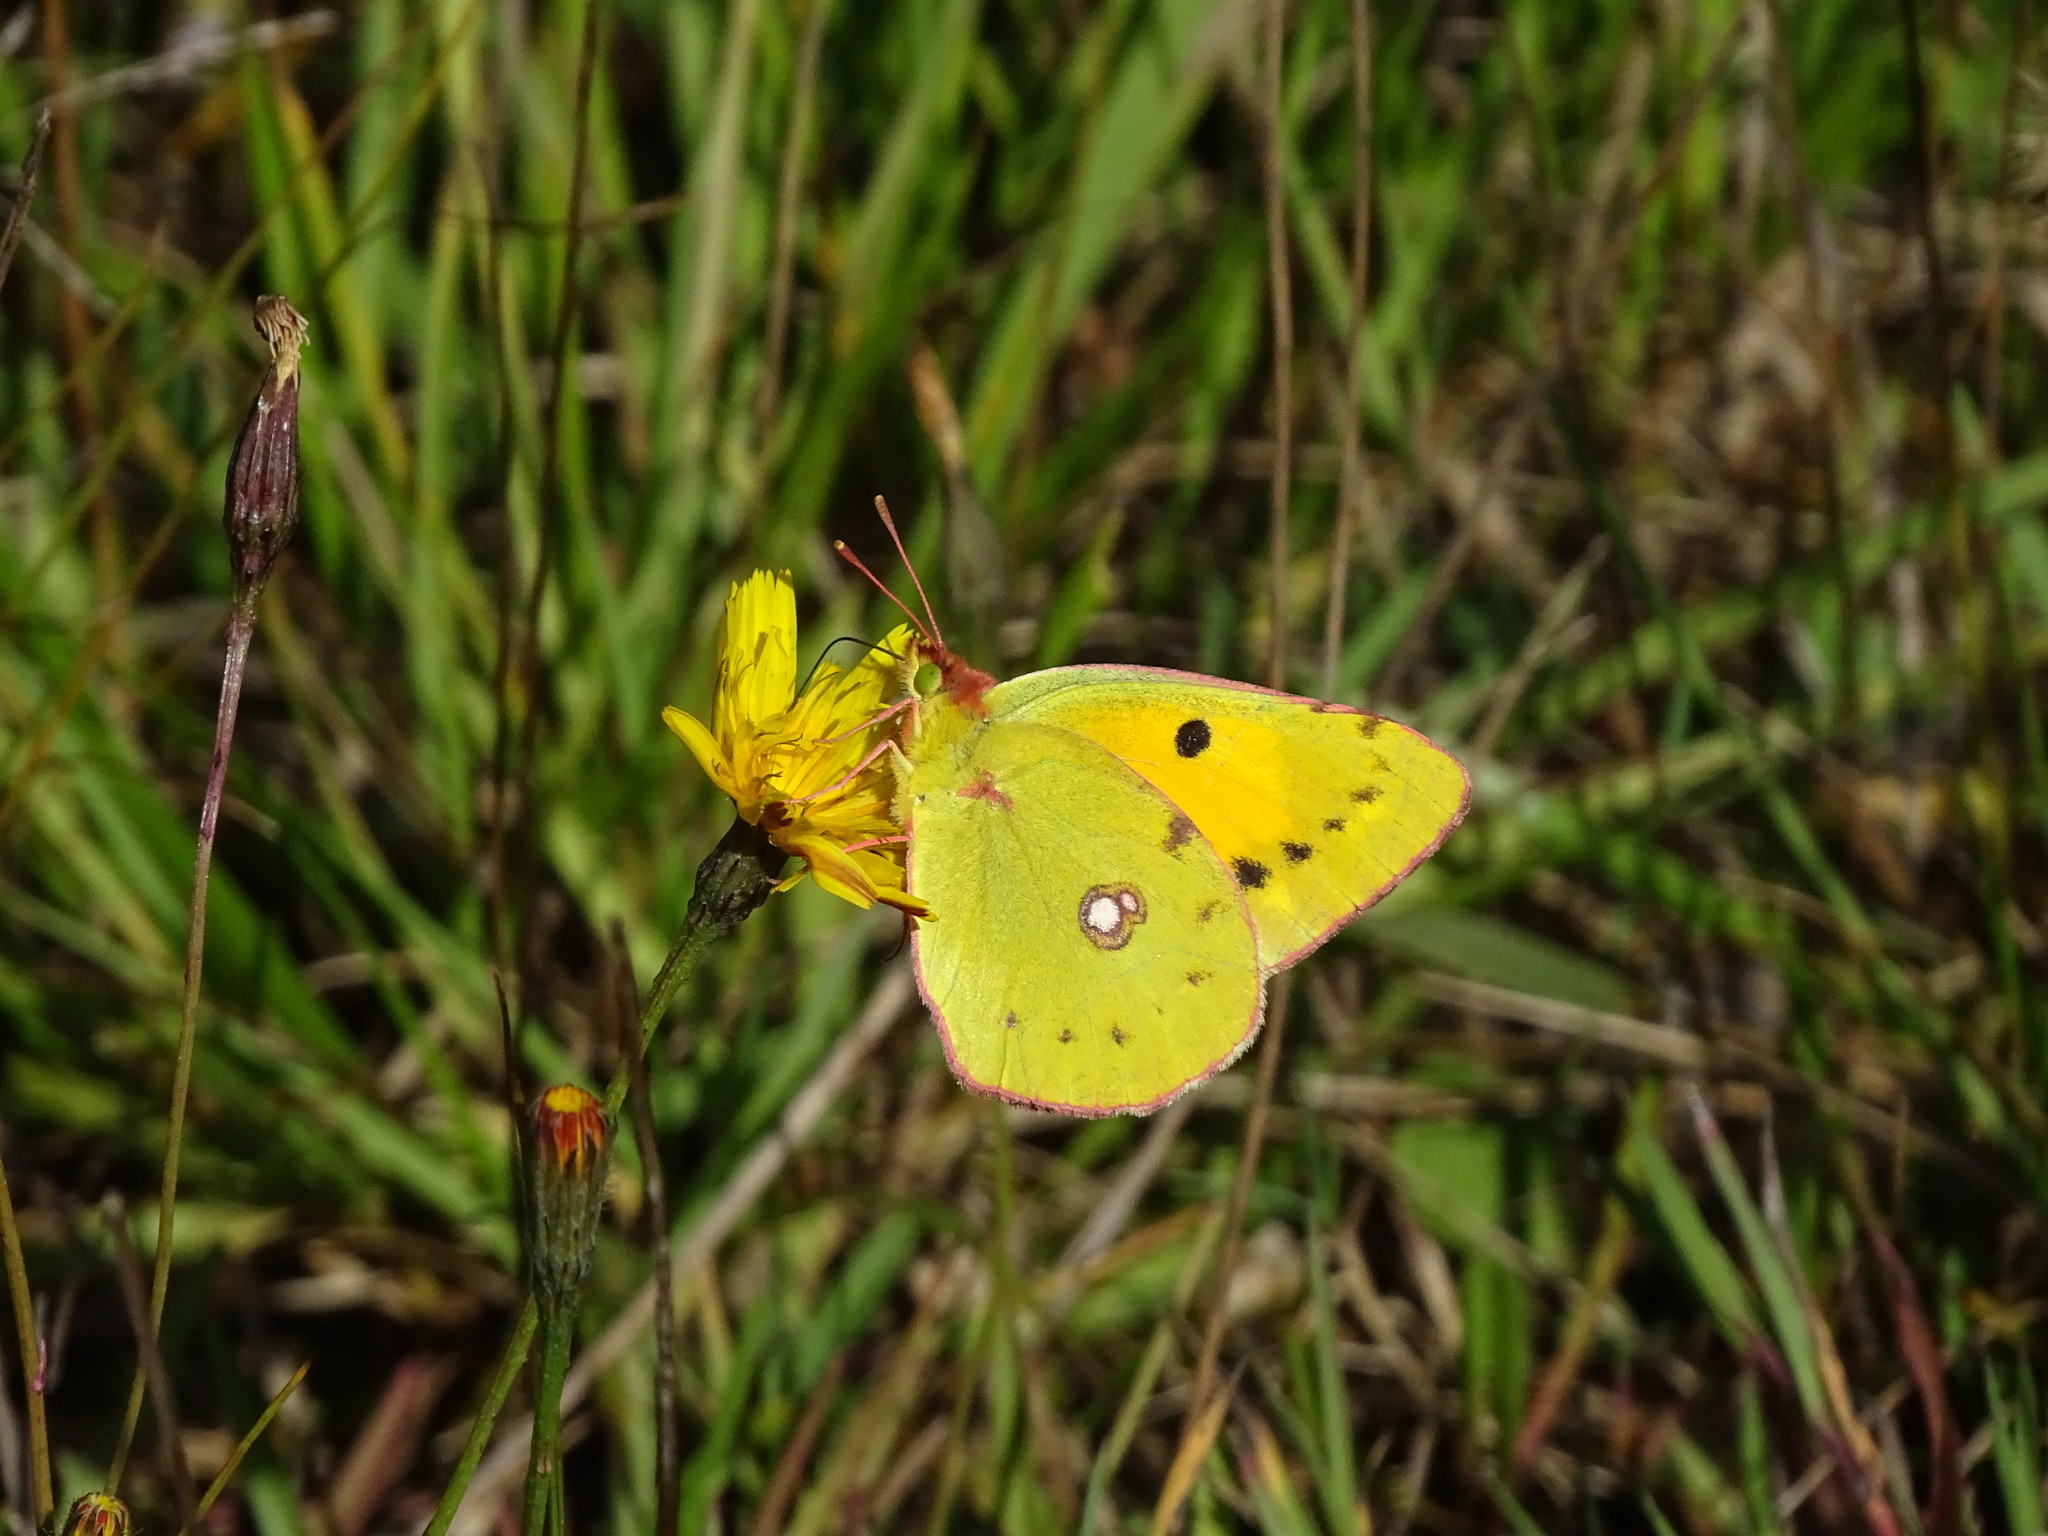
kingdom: Animalia
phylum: Arthropoda
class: Insecta
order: Lepidoptera
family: Pieridae
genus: Colias
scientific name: Colias croceus
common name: Clouded yellow
